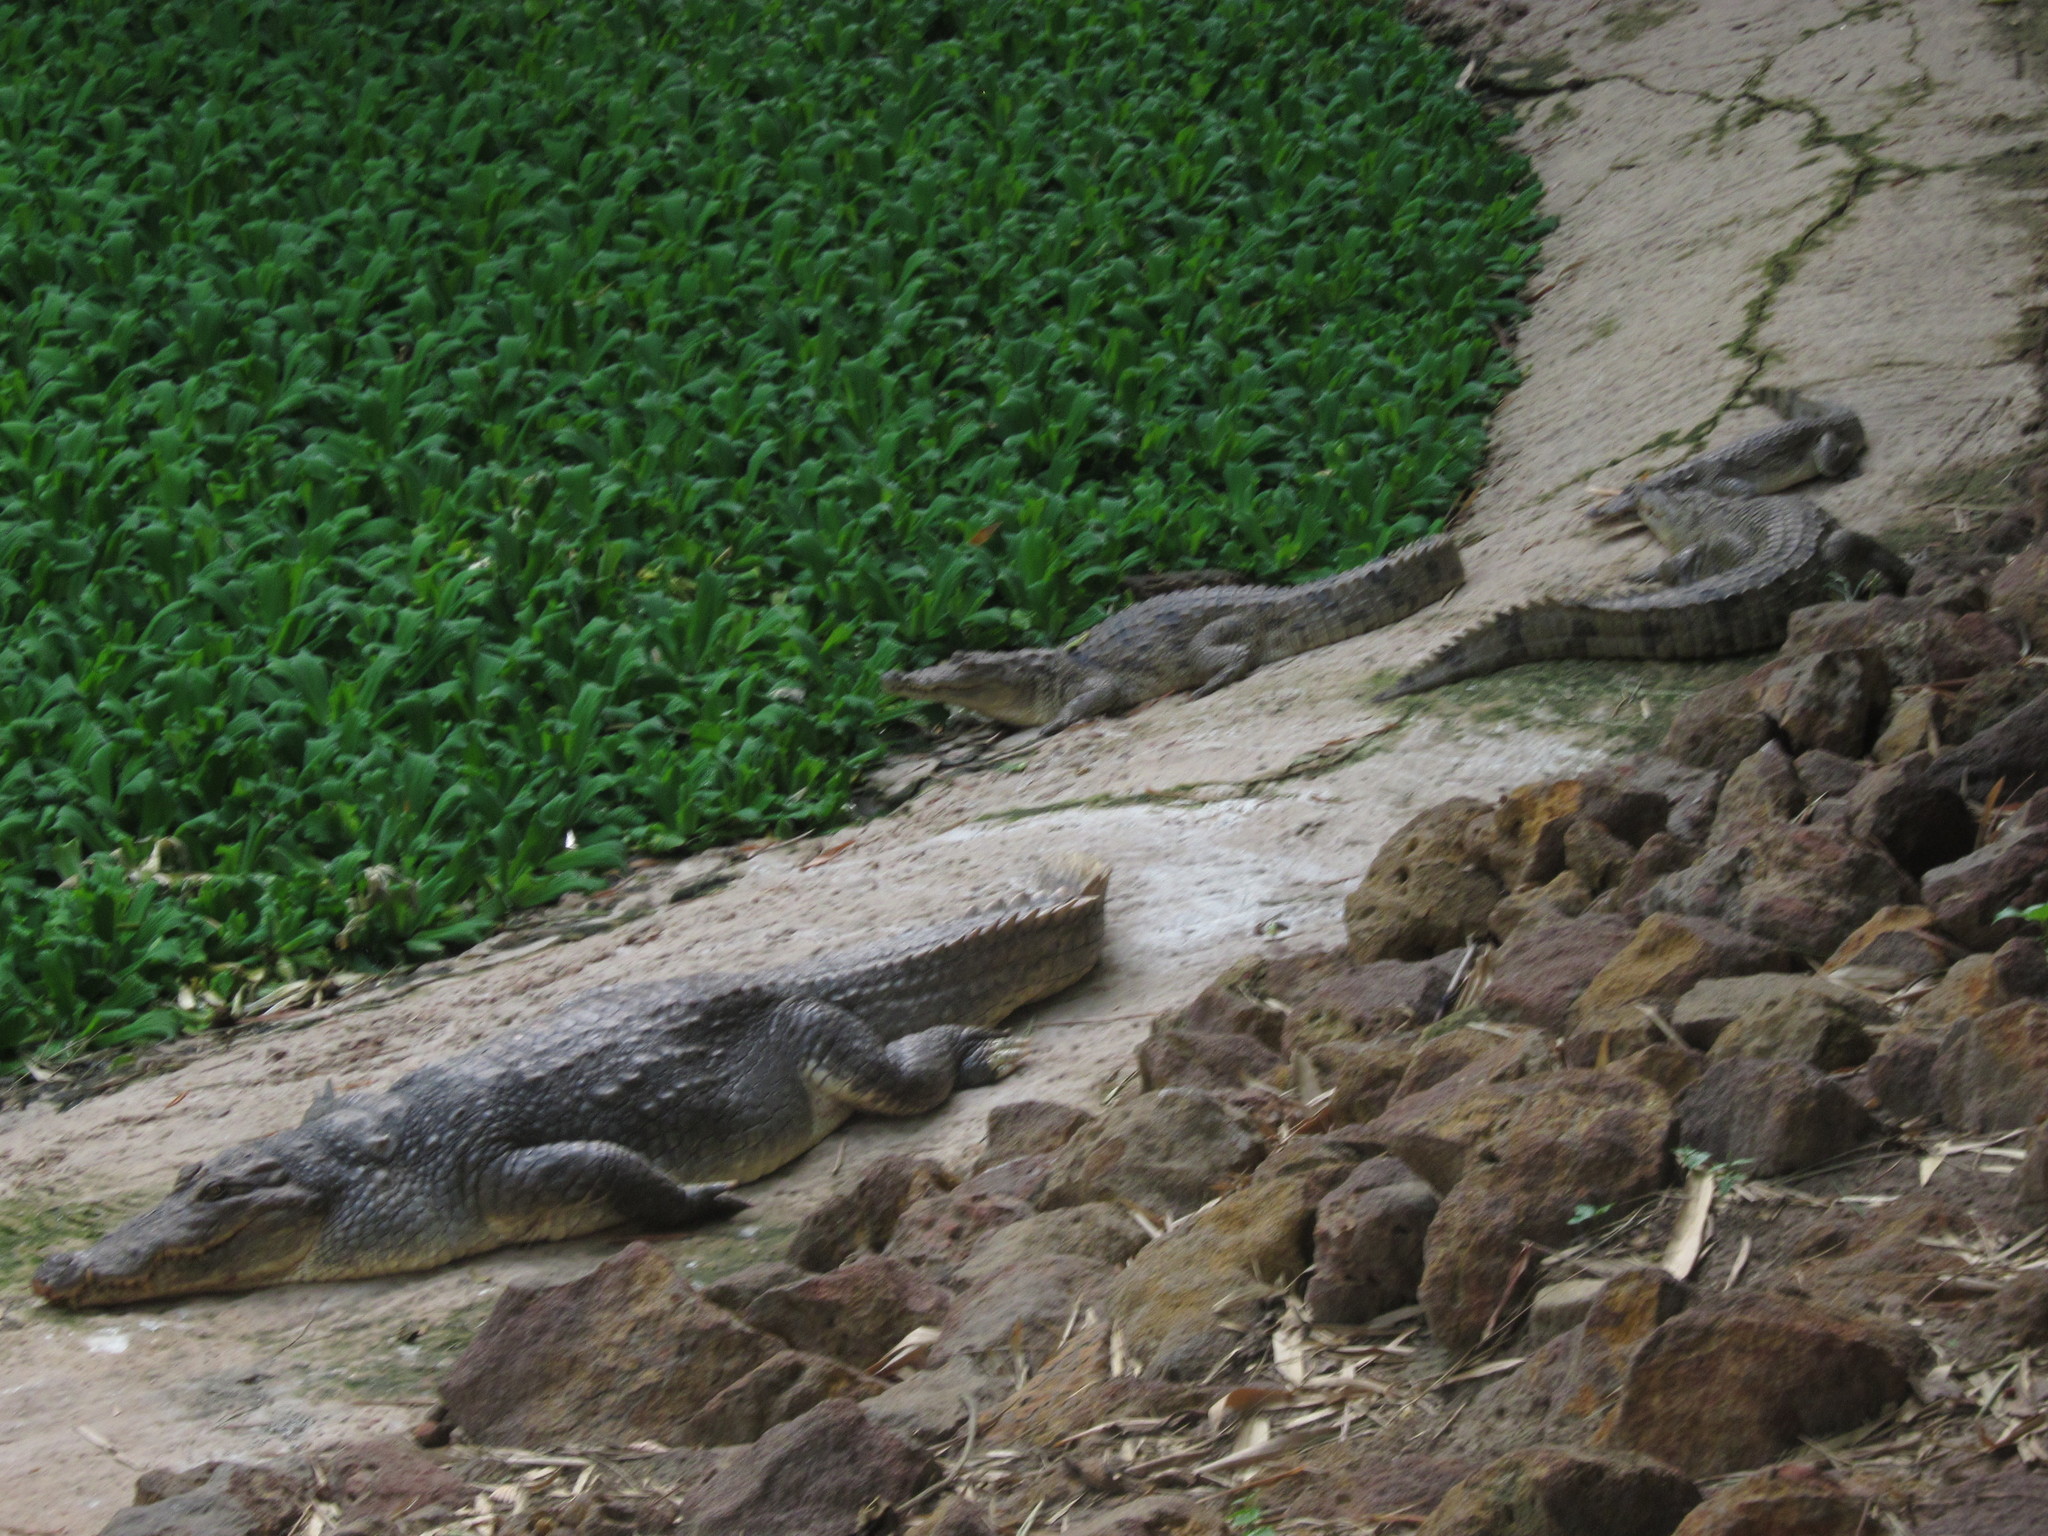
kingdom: Animalia
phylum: Chordata
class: Crocodylia
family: Crocodylidae
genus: Crocodylus
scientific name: Crocodylus suchus
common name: West african crocodile
